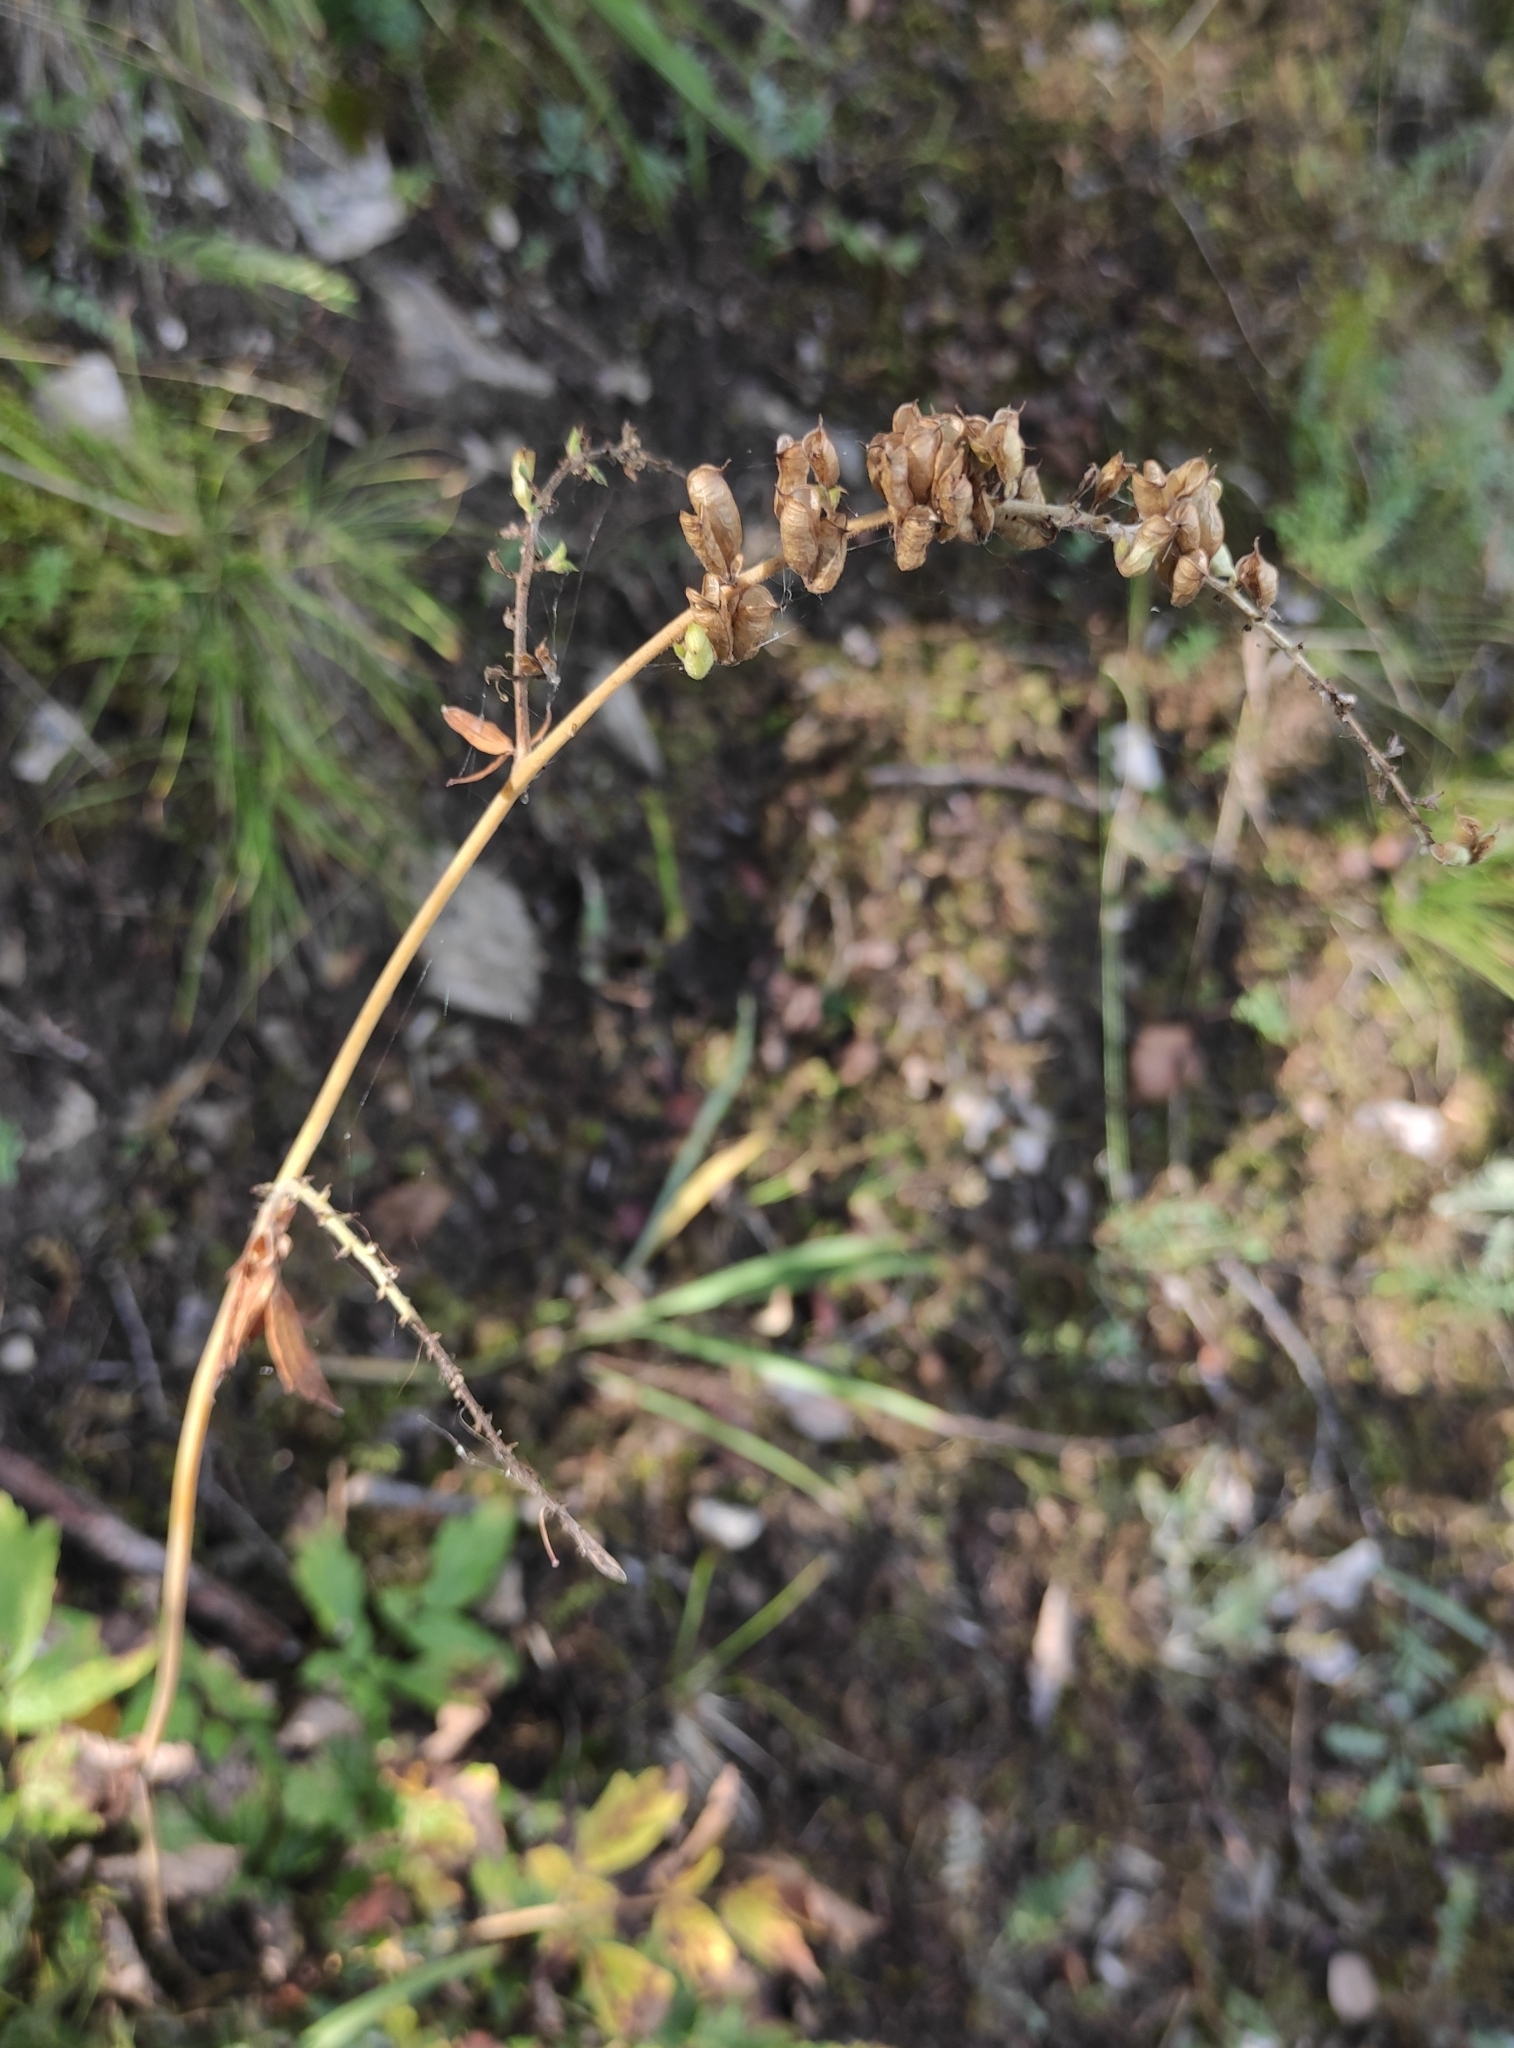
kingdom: Plantae
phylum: Tracheophyta
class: Magnoliopsida
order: Ranunculales
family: Ranunculaceae
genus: Actaea
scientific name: Actaea cimicifuga
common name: Chinese cimicifuga
